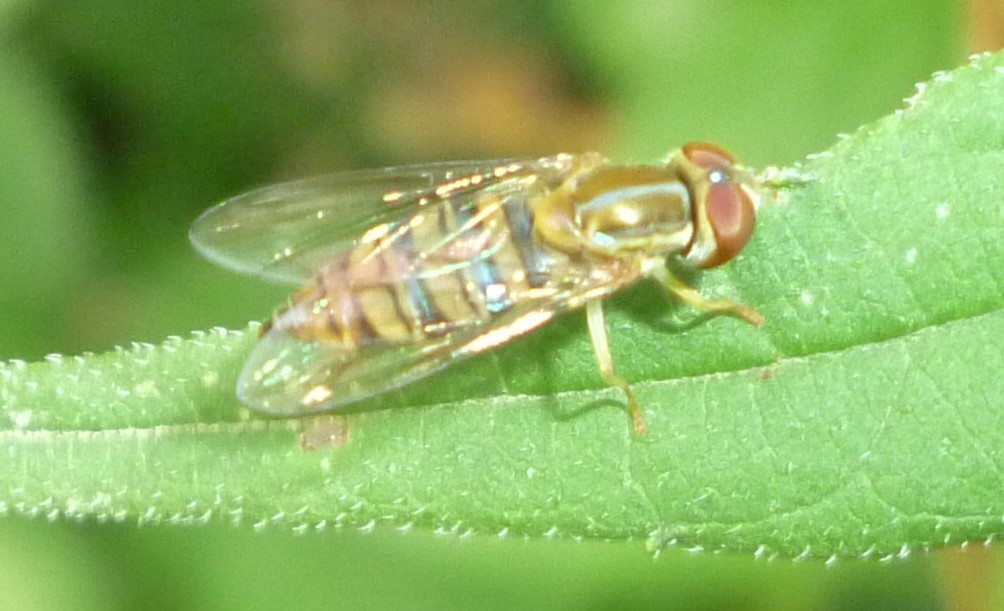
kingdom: Animalia
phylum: Arthropoda
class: Insecta
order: Diptera
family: Syrphidae
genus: Toxomerus
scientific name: Toxomerus politus
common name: Maize calligrapher
